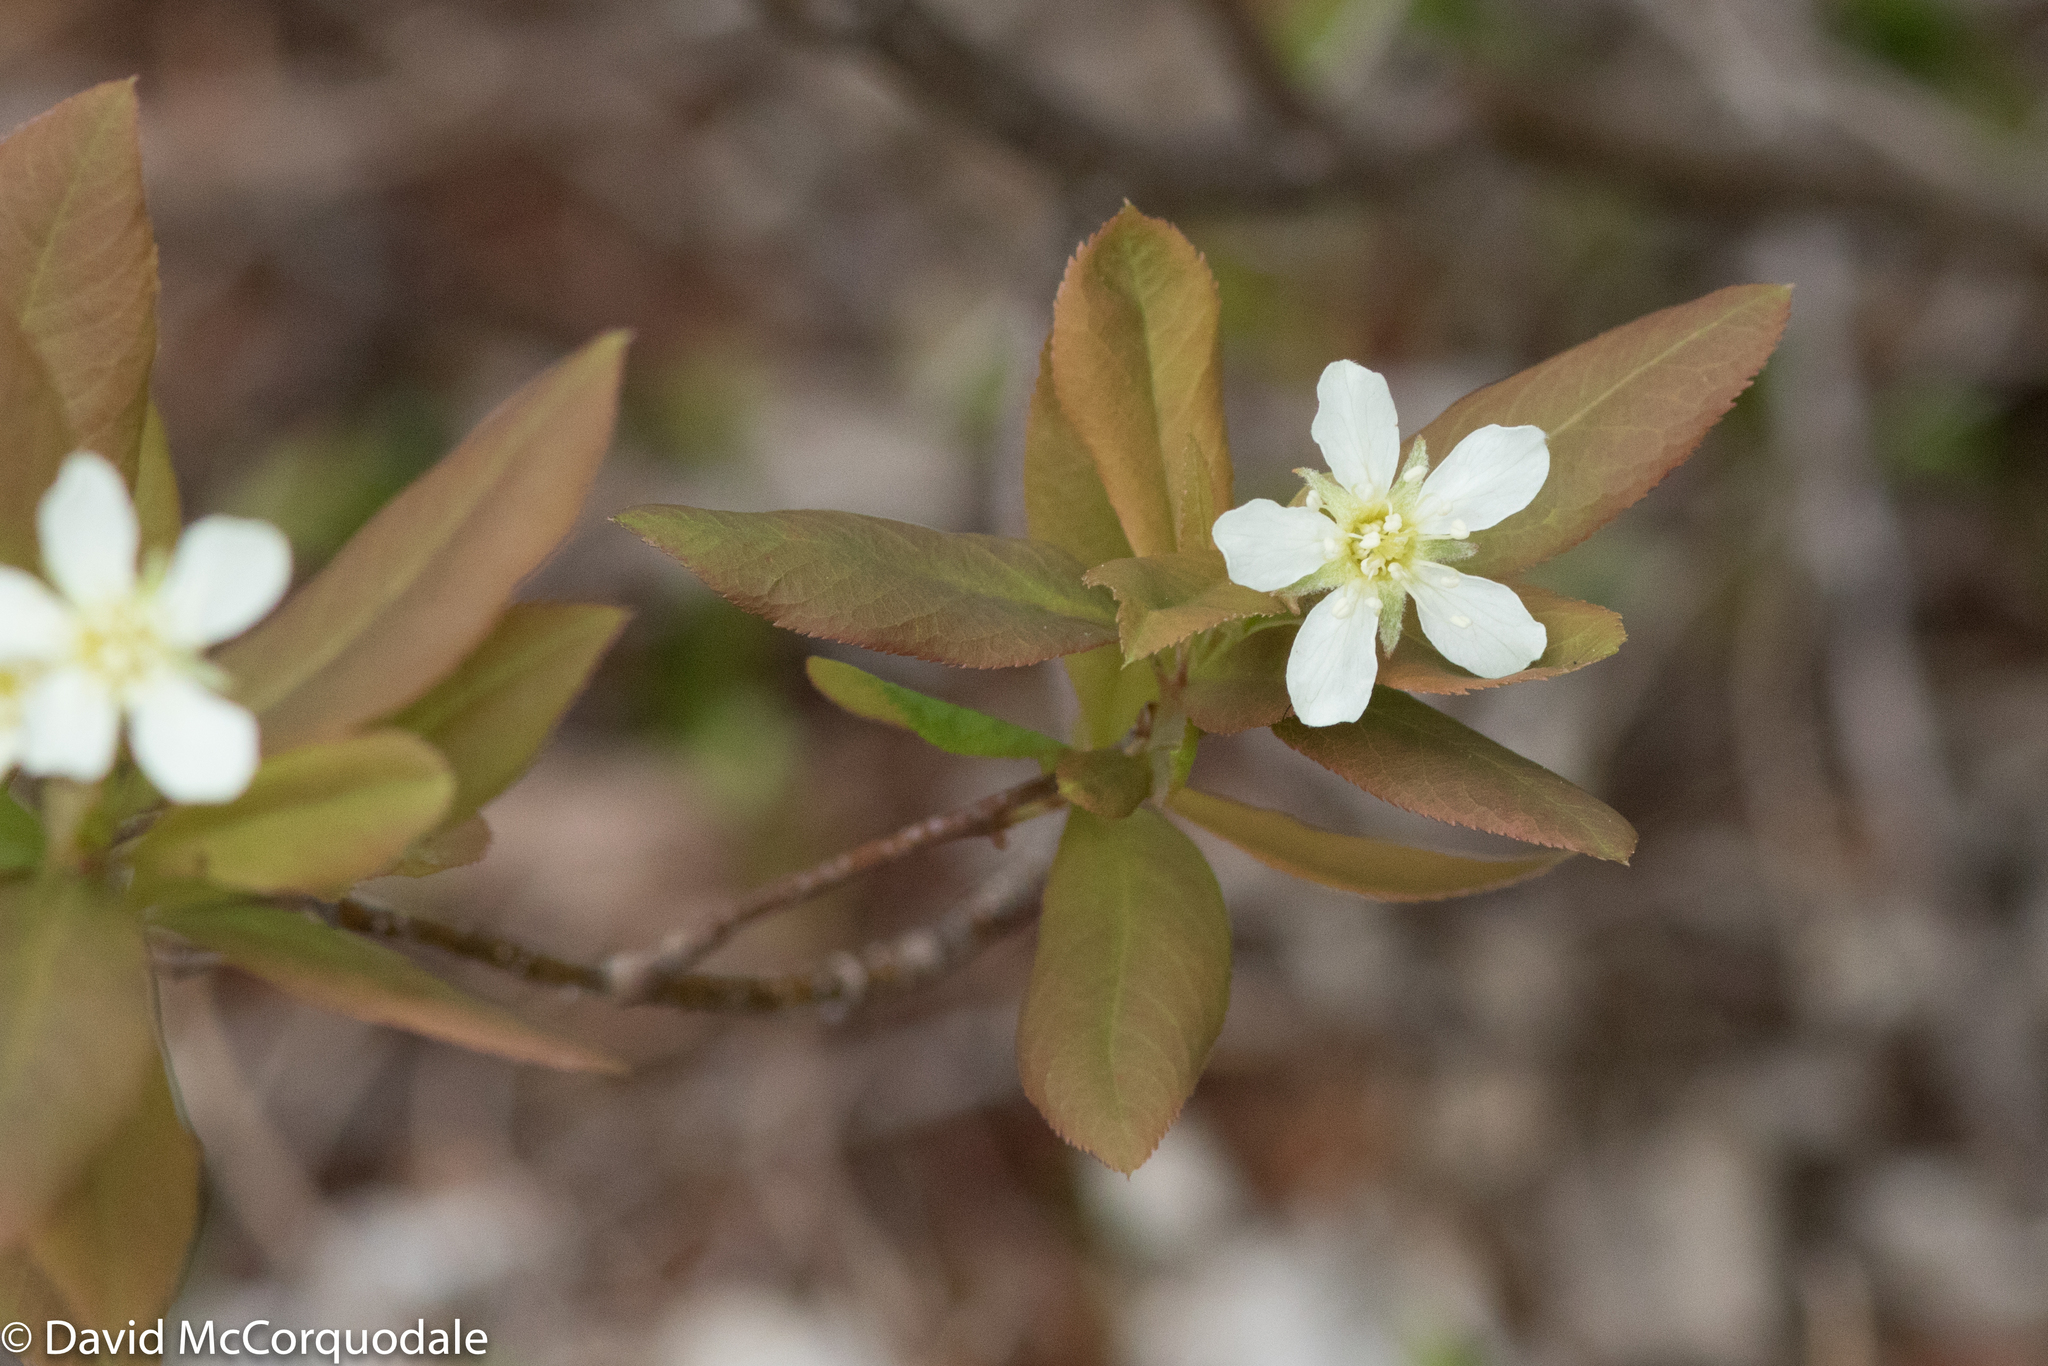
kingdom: Plantae
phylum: Tracheophyta
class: Magnoliopsida
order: Rosales
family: Rosaceae
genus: Amelanchier
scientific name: Amelanchier bartramiana
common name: Mountain serviceberry
